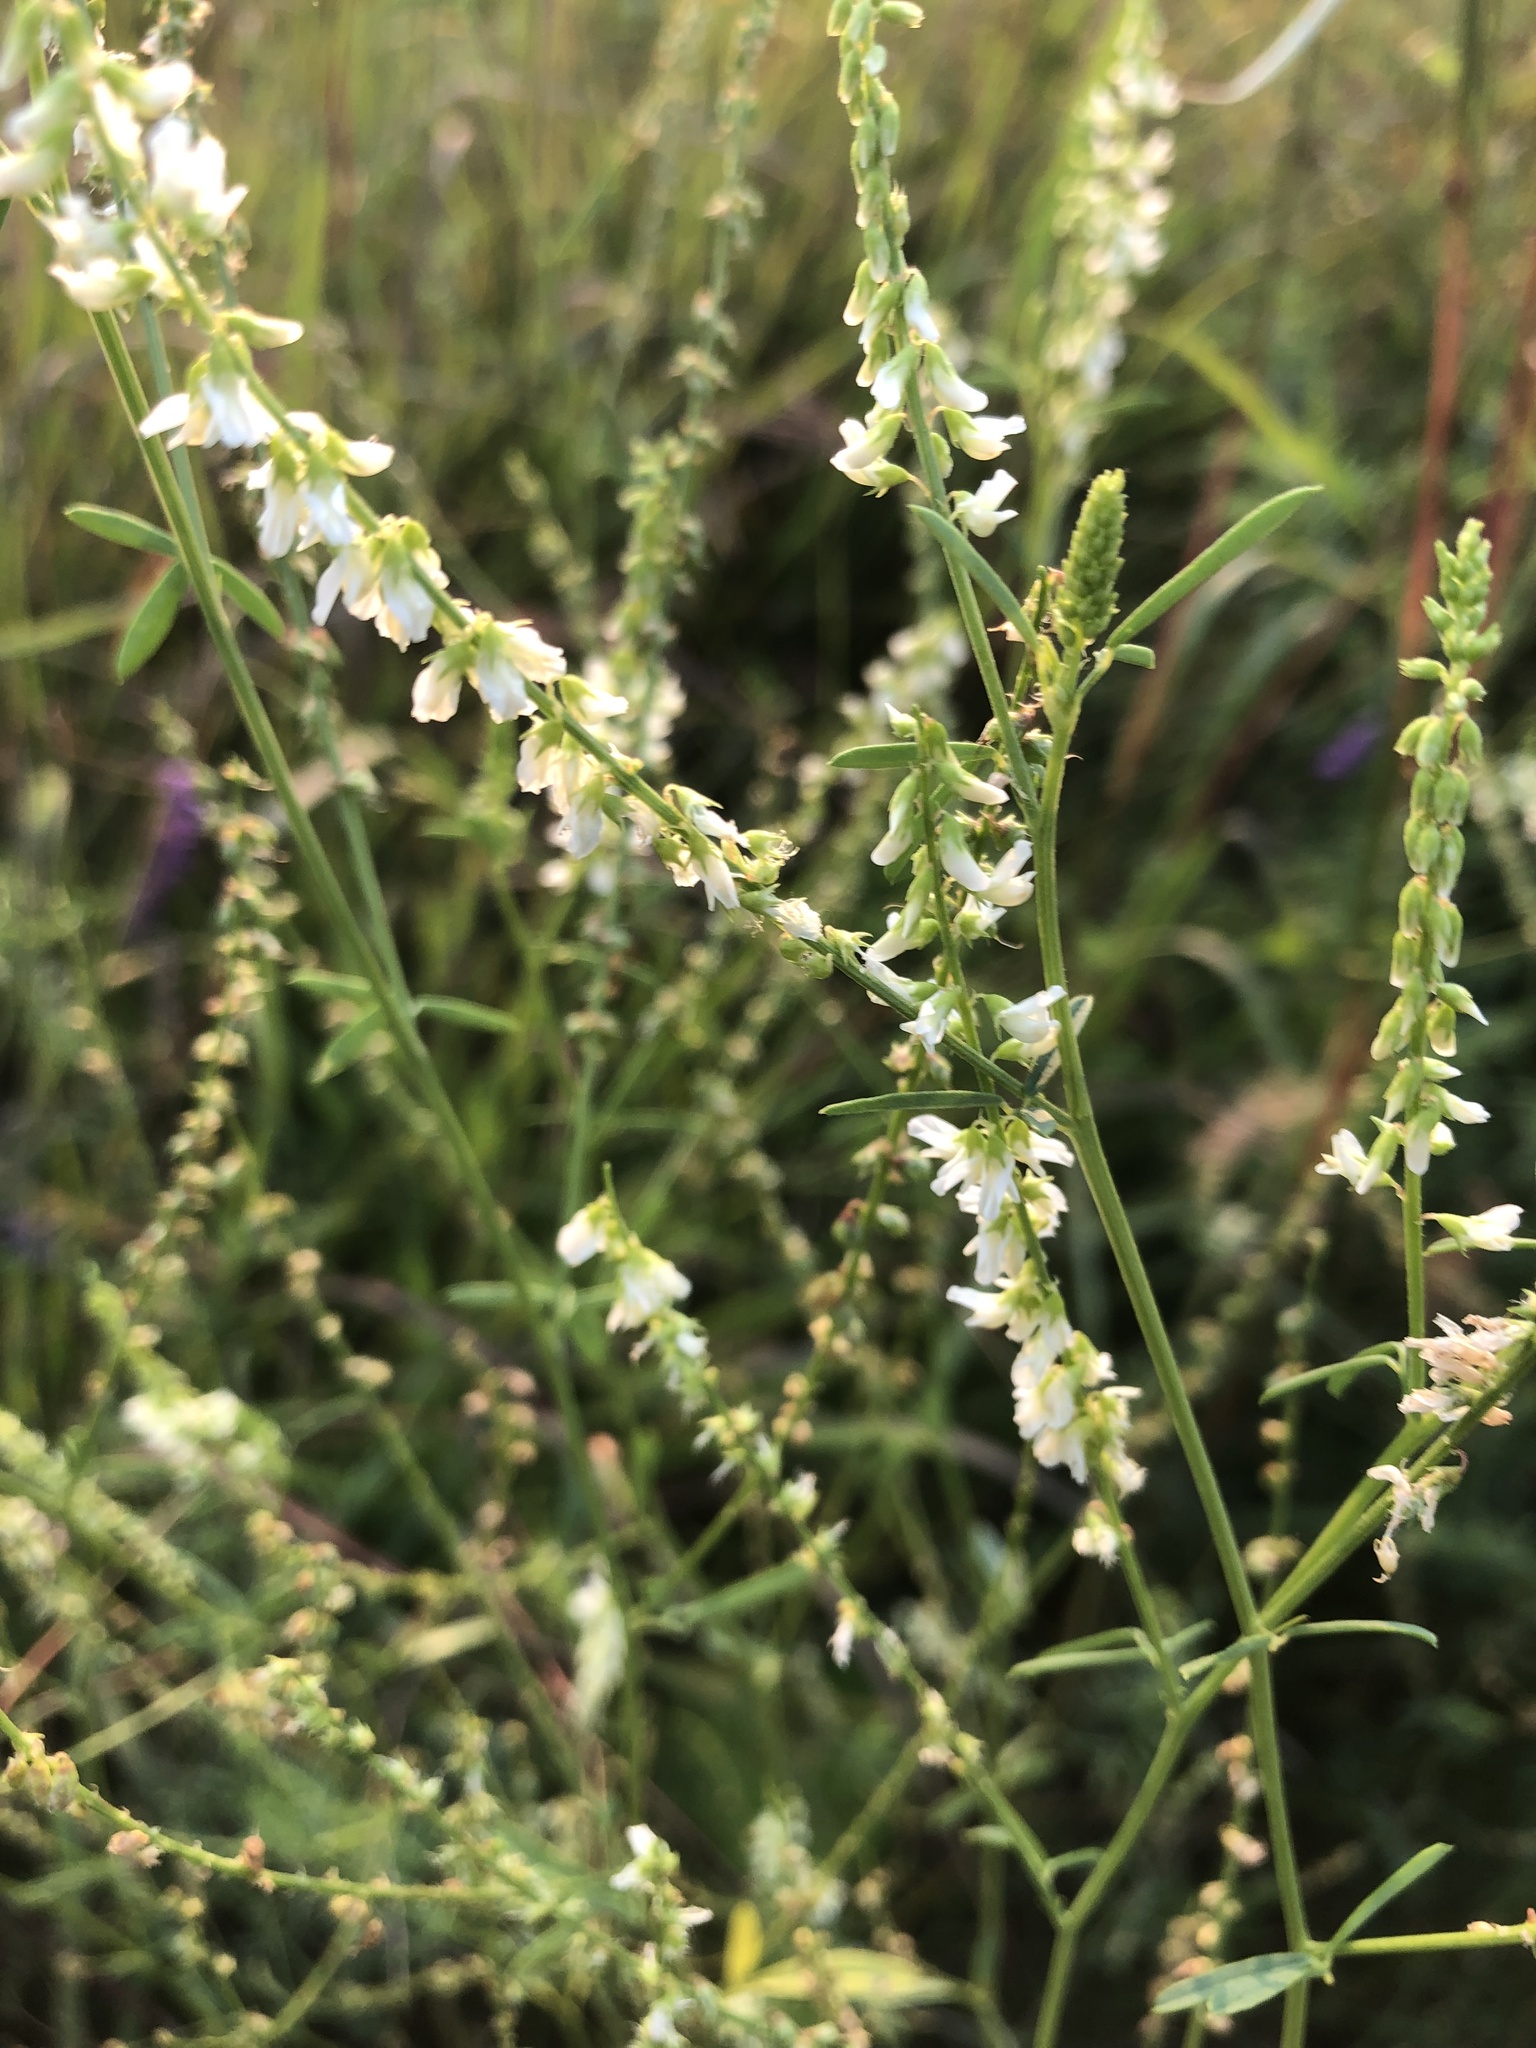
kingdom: Plantae
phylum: Tracheophyta
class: Magnoliopsida
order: Fabales
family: Fabaceae
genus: Melilotus
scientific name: Melilotus albus
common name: White melilot
